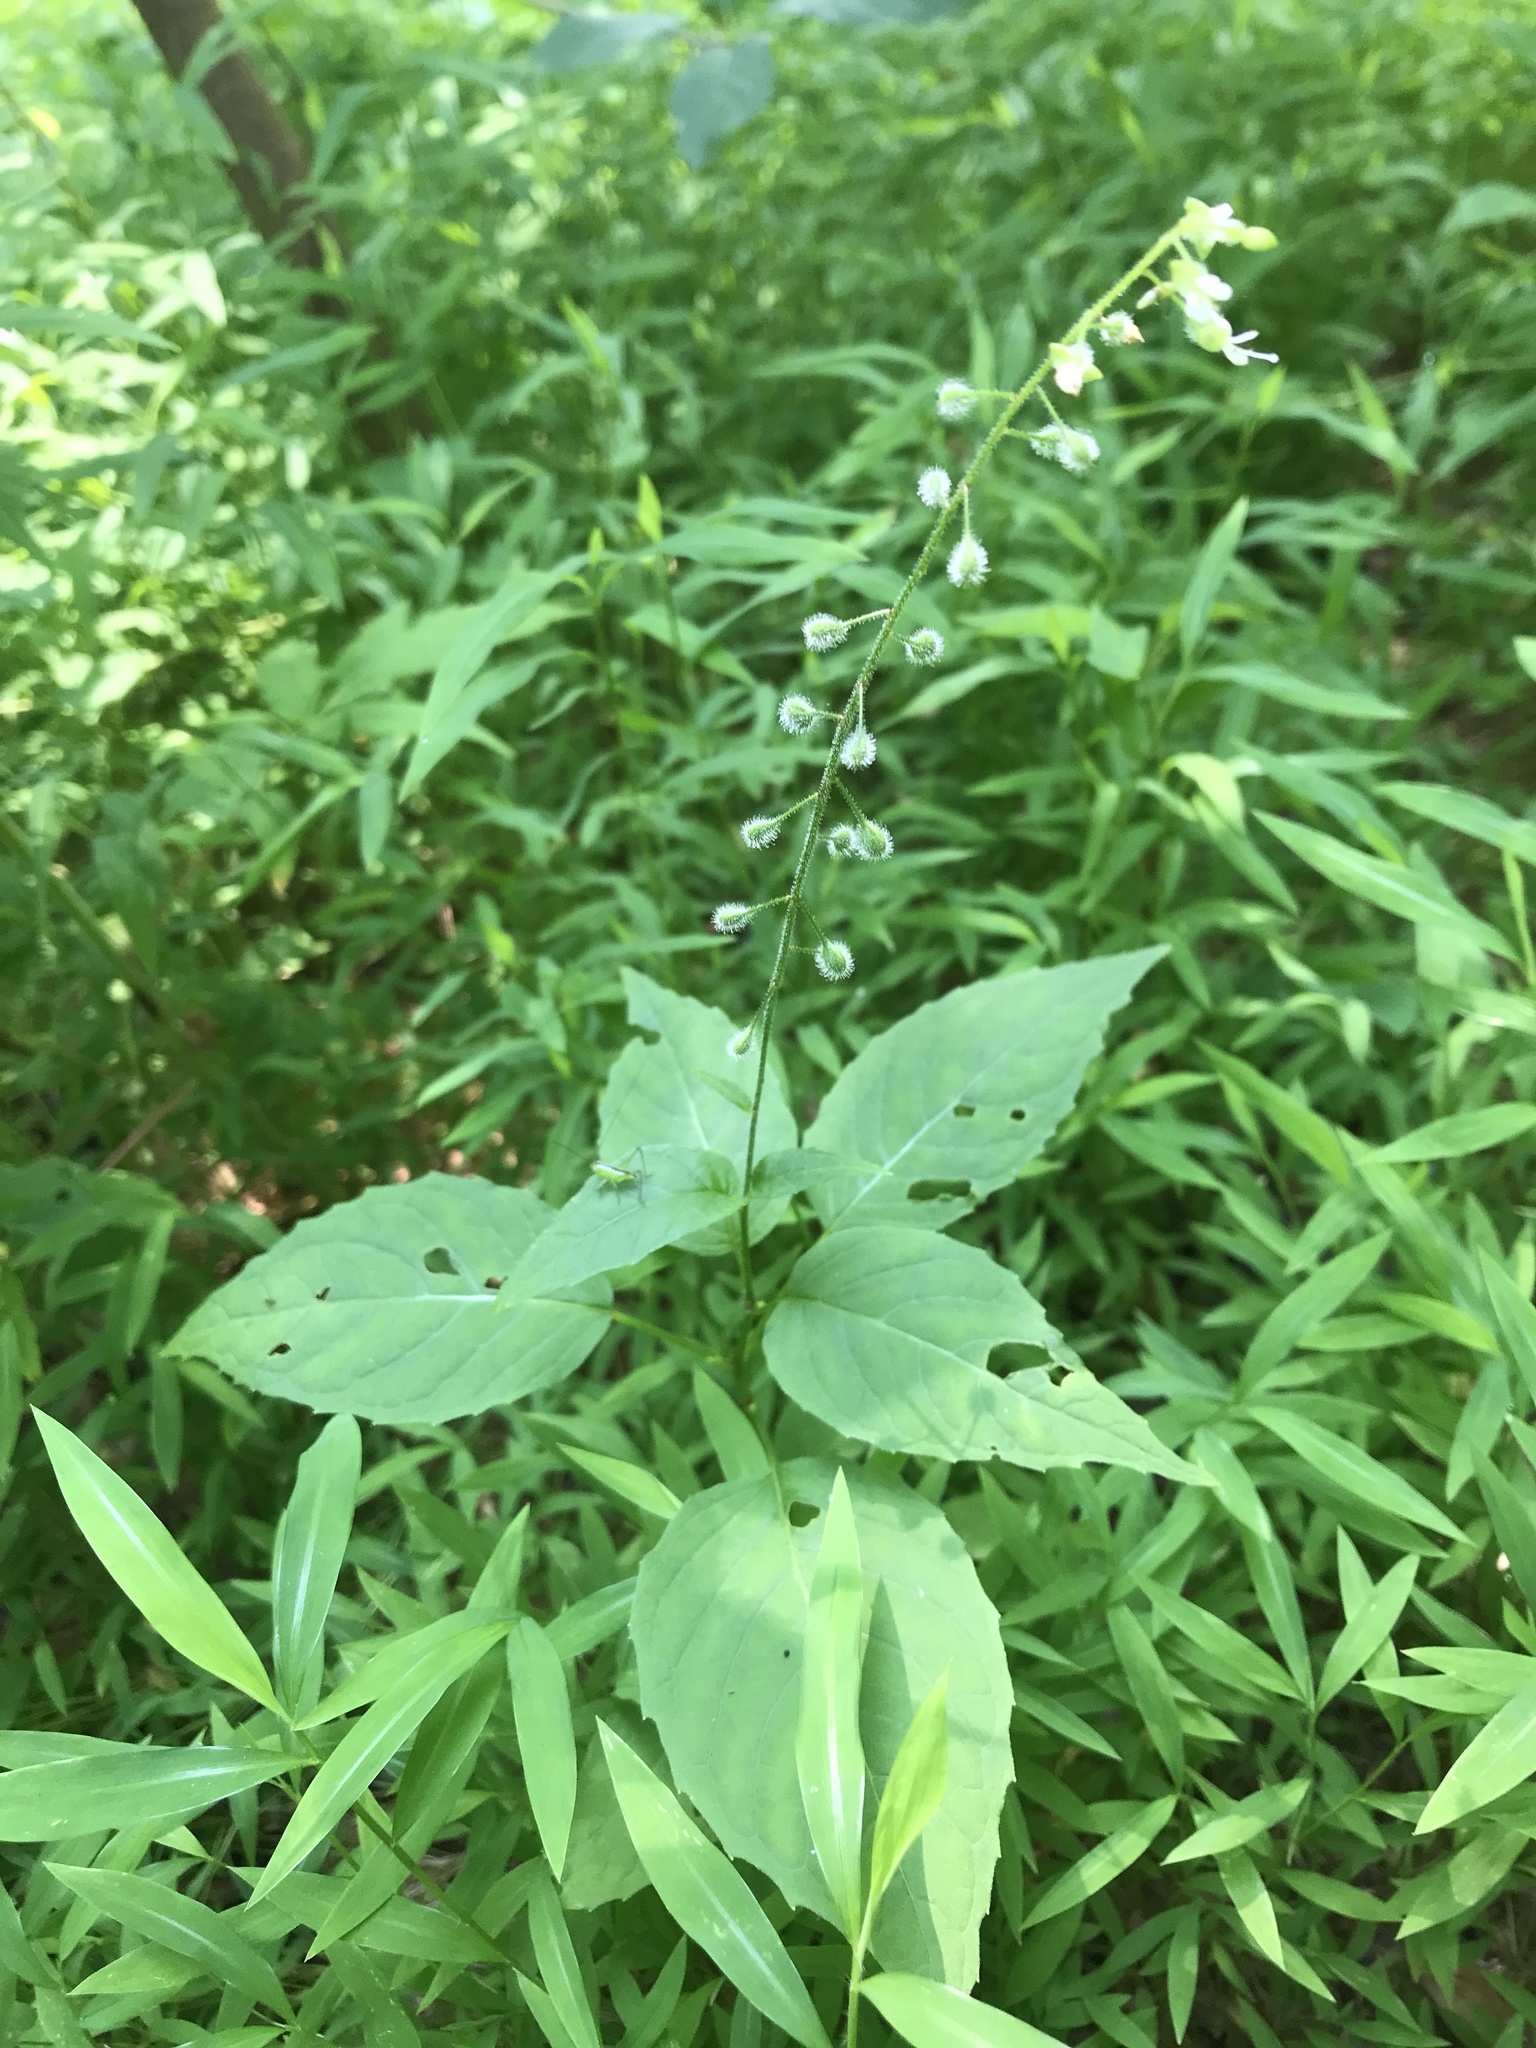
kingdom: Plantae
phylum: Tracheophyta
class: Magnoliopsida
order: Myrtales
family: Onagraceae
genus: Circaea
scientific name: Circaea canadensis
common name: Broad-leaved enchanter's nightshade
